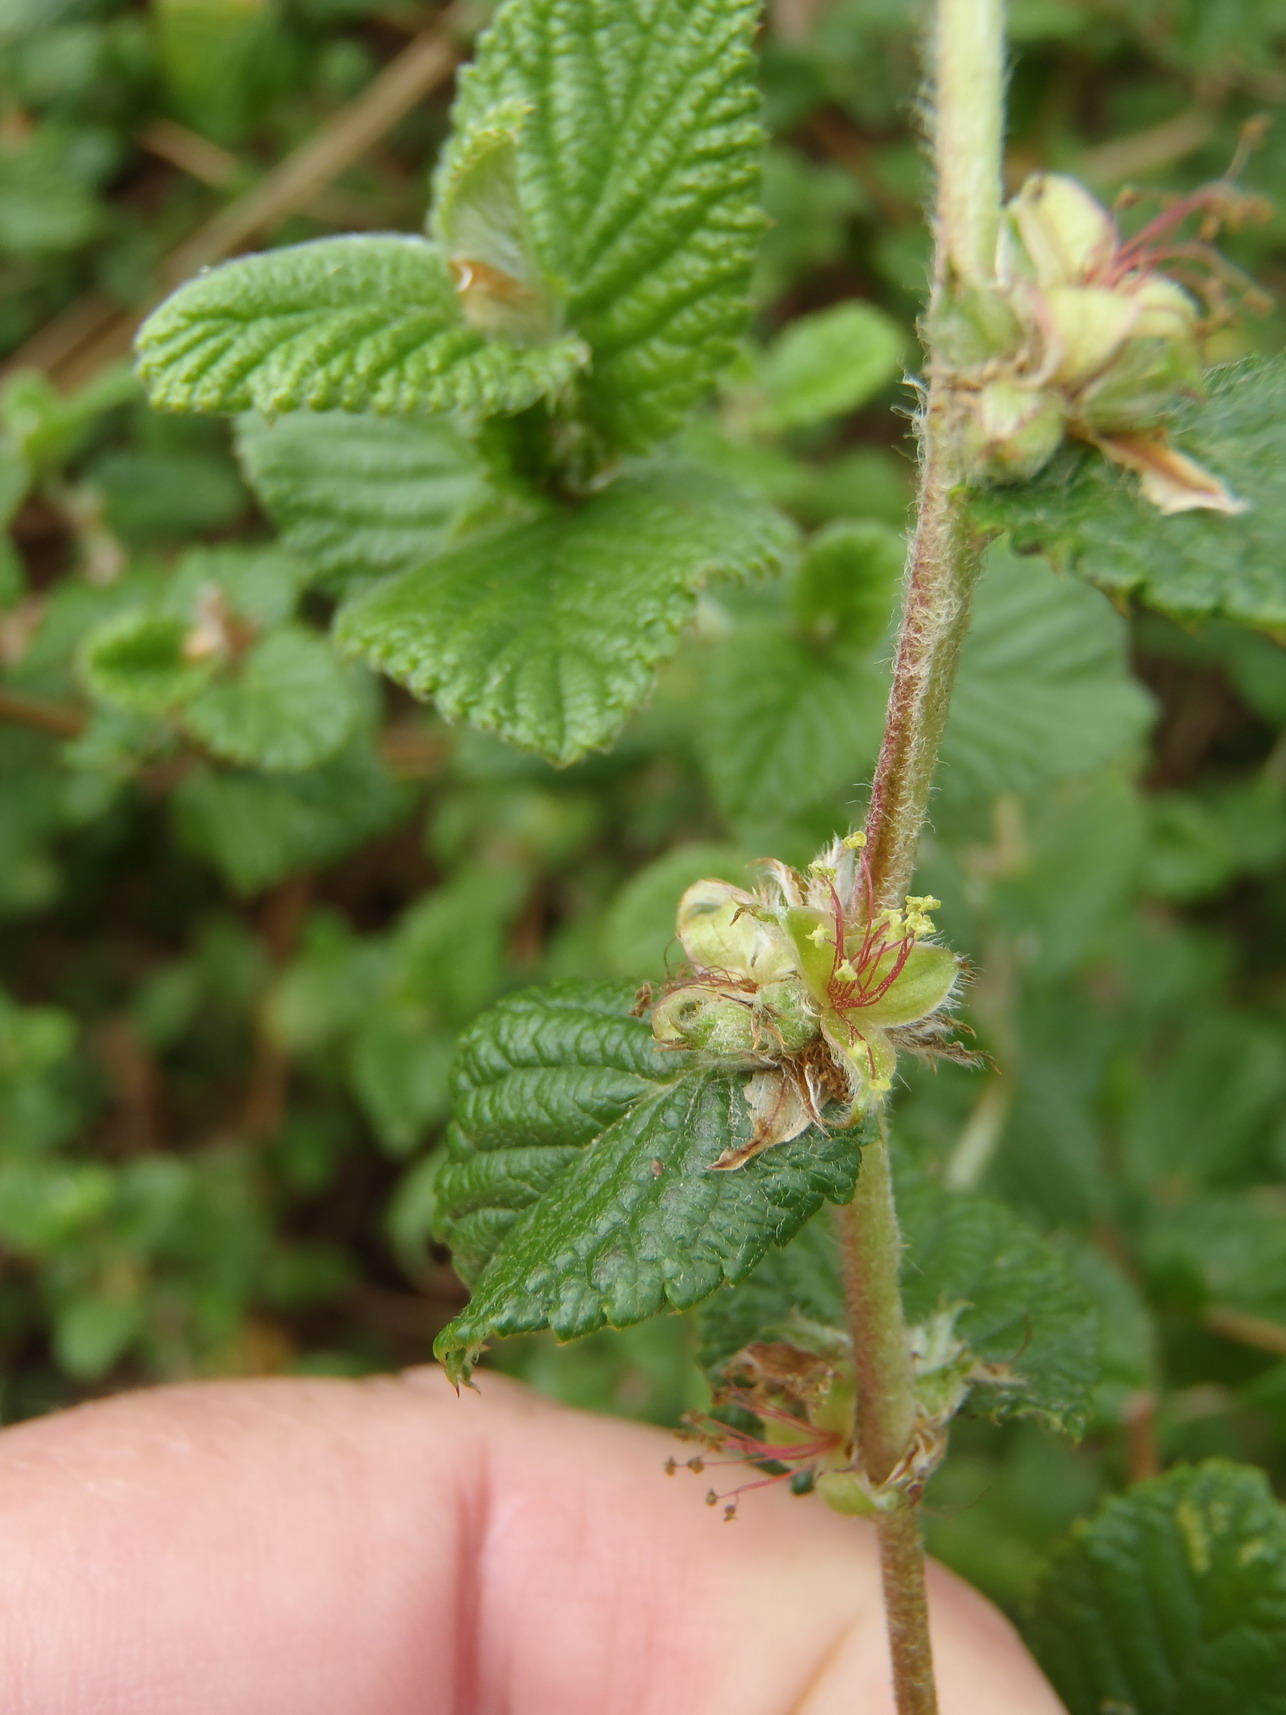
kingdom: Plantae
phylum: Tracheophyta
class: Magnoliopsida
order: Rosales
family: Rosaceae
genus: Cliffortia
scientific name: Cliffortia odorata
